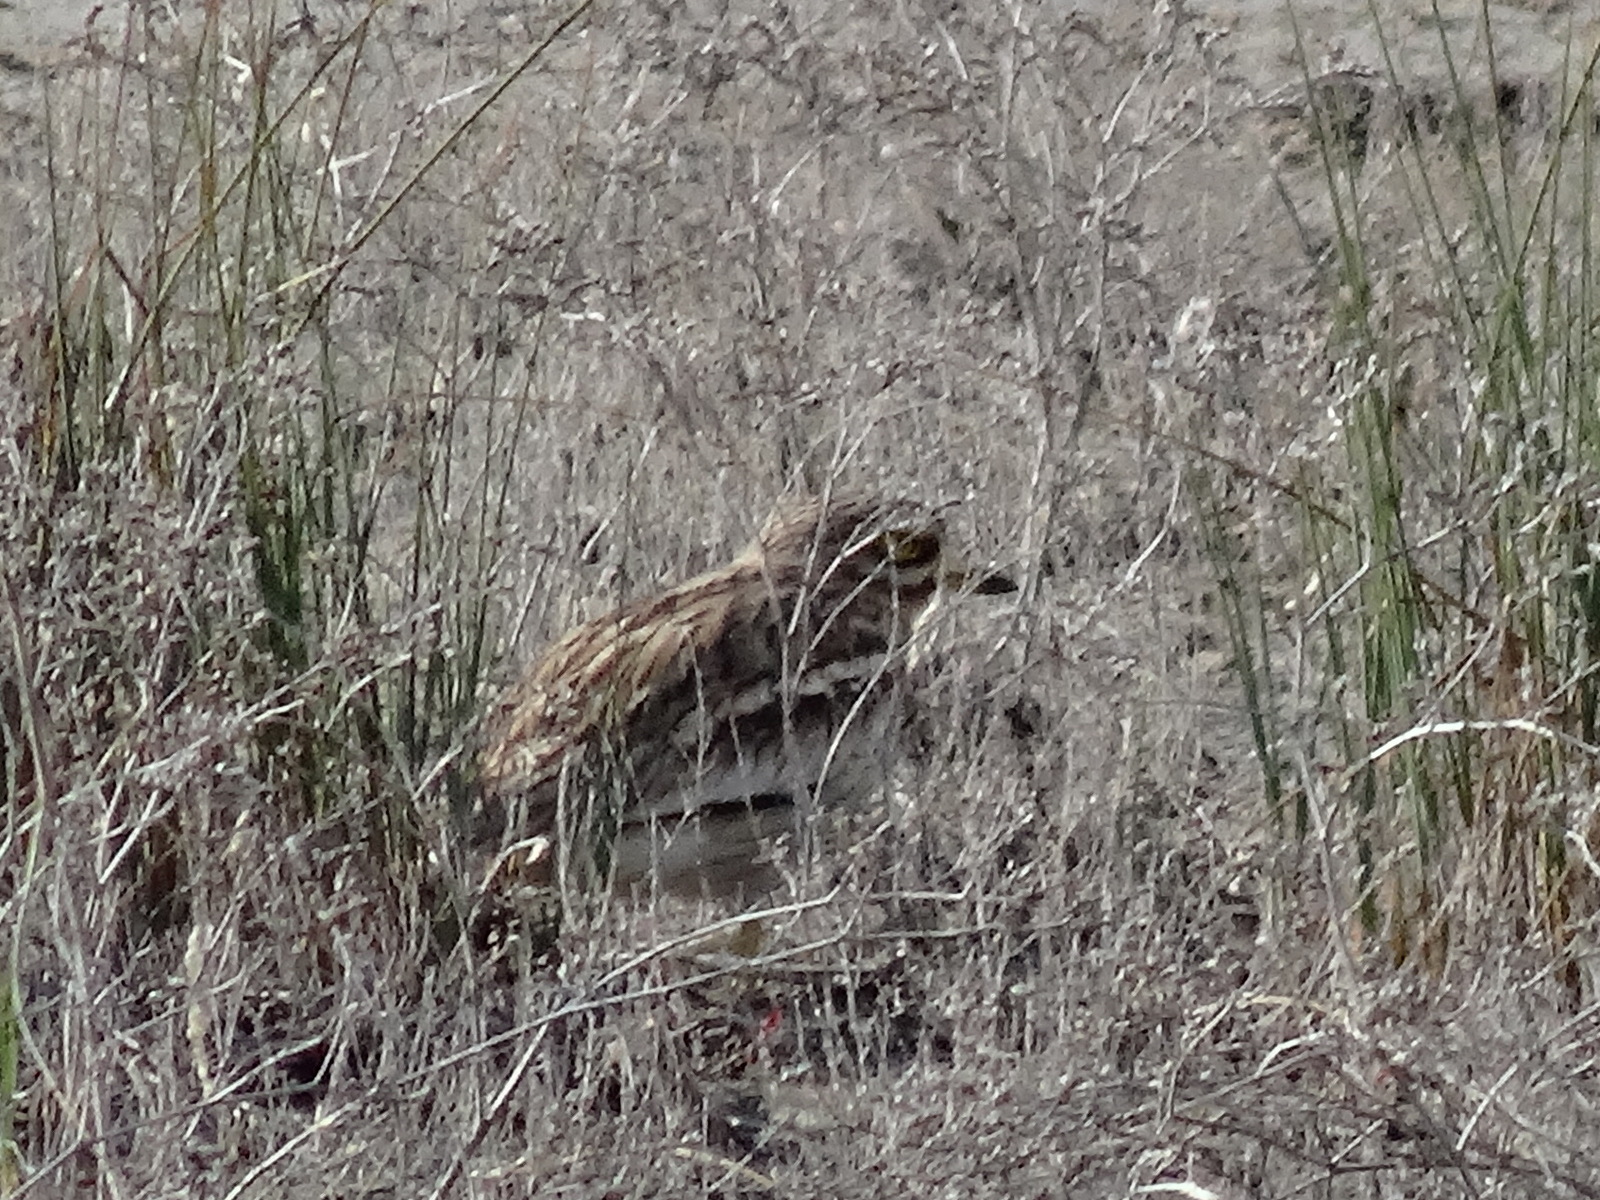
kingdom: Animalia
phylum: Chordata
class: Aves
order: Charadriiformes
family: Burhinidae
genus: Burhinus
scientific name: Burhinus oedicnemus
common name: Eurasian stone-curlew
